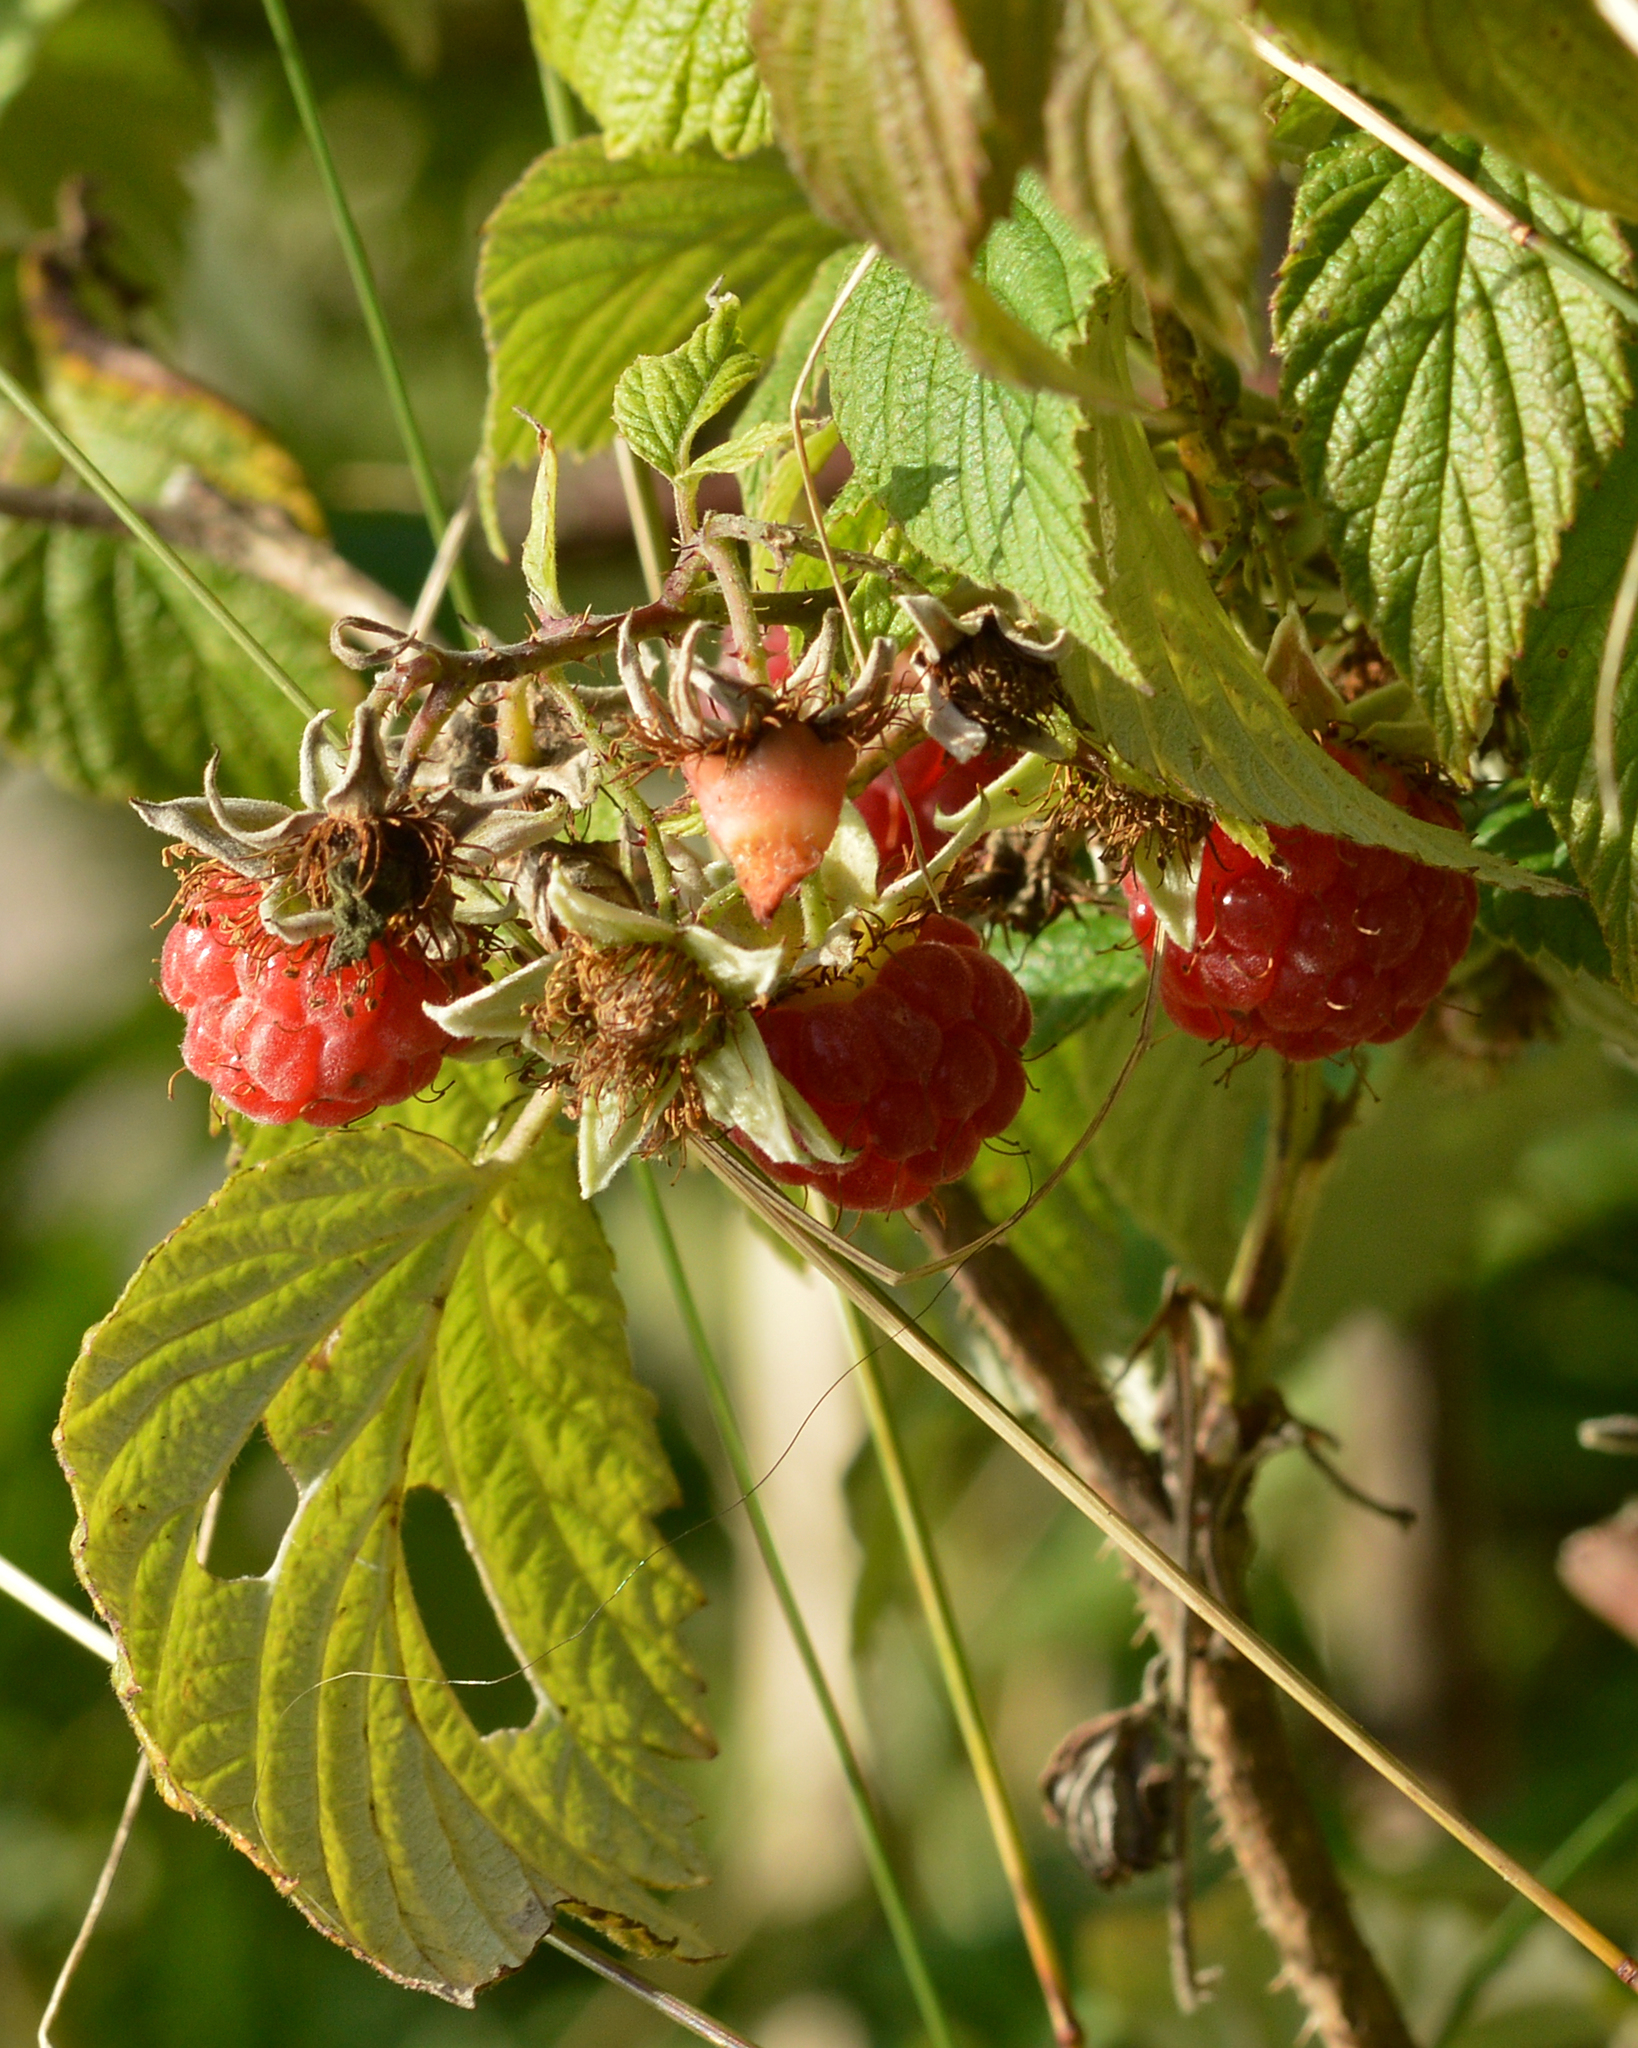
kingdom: Plantae
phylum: Tracheophyta
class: Magnoliopsida
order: Rosales
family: Rosaceae
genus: Rubus
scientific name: Rubus idaeus
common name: Raspberry
